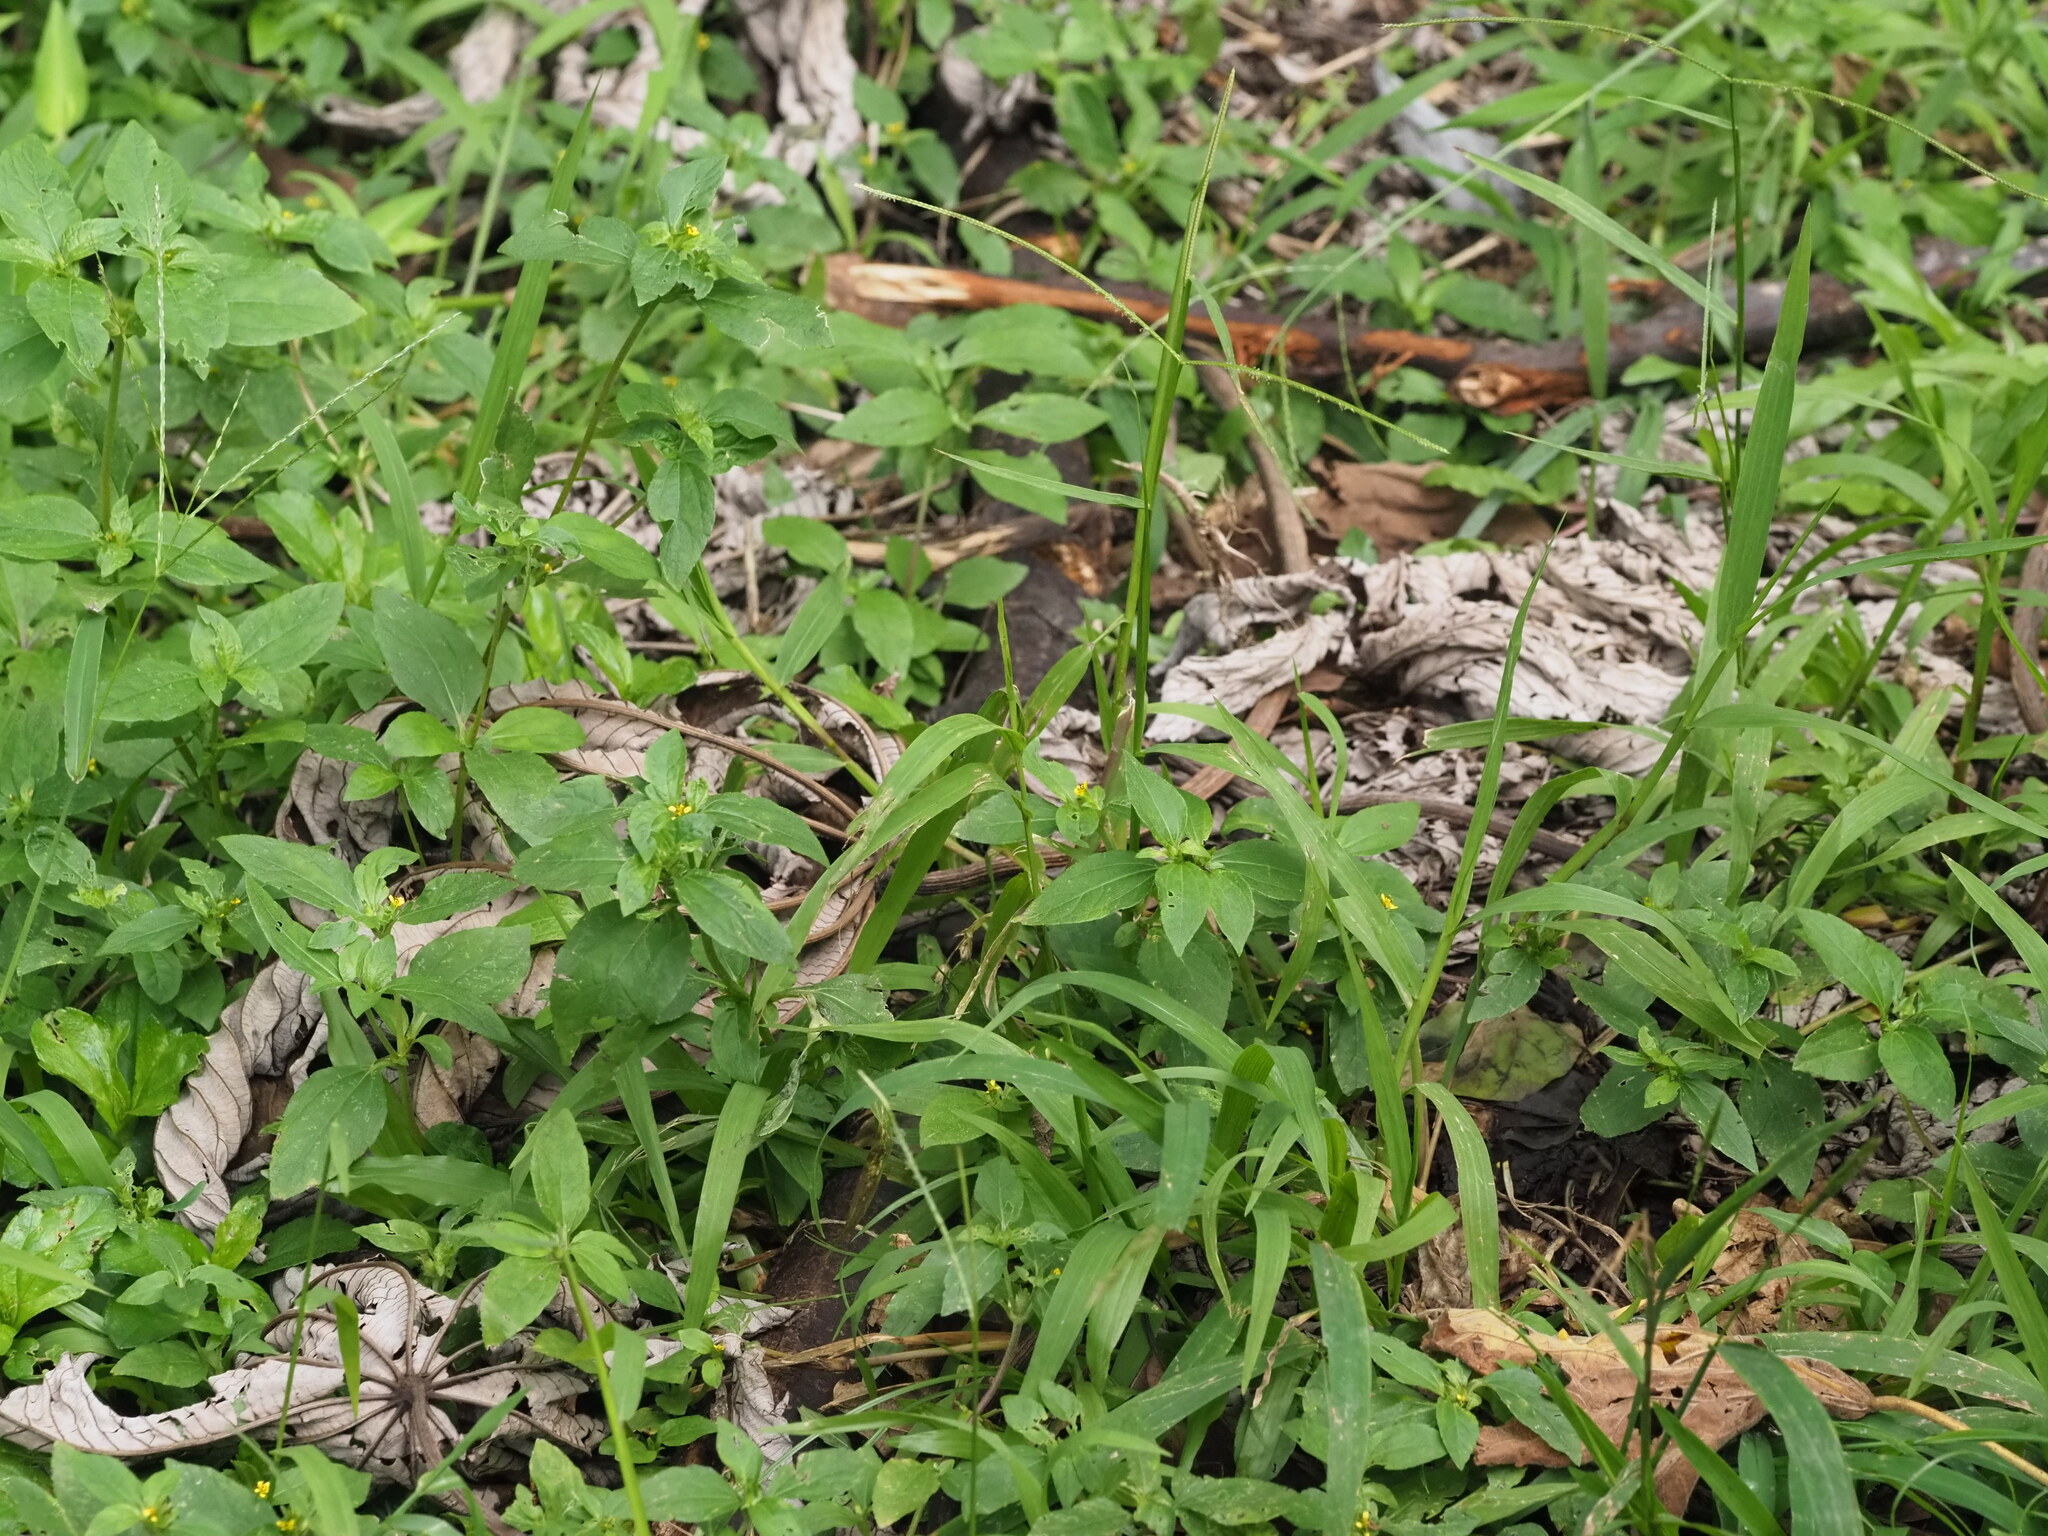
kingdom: Plantae
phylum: Tracheophyta
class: Liliopsida
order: Poales
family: Poaceae
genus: Paspalum
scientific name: Paspalum conjugatum
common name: Hilograss
